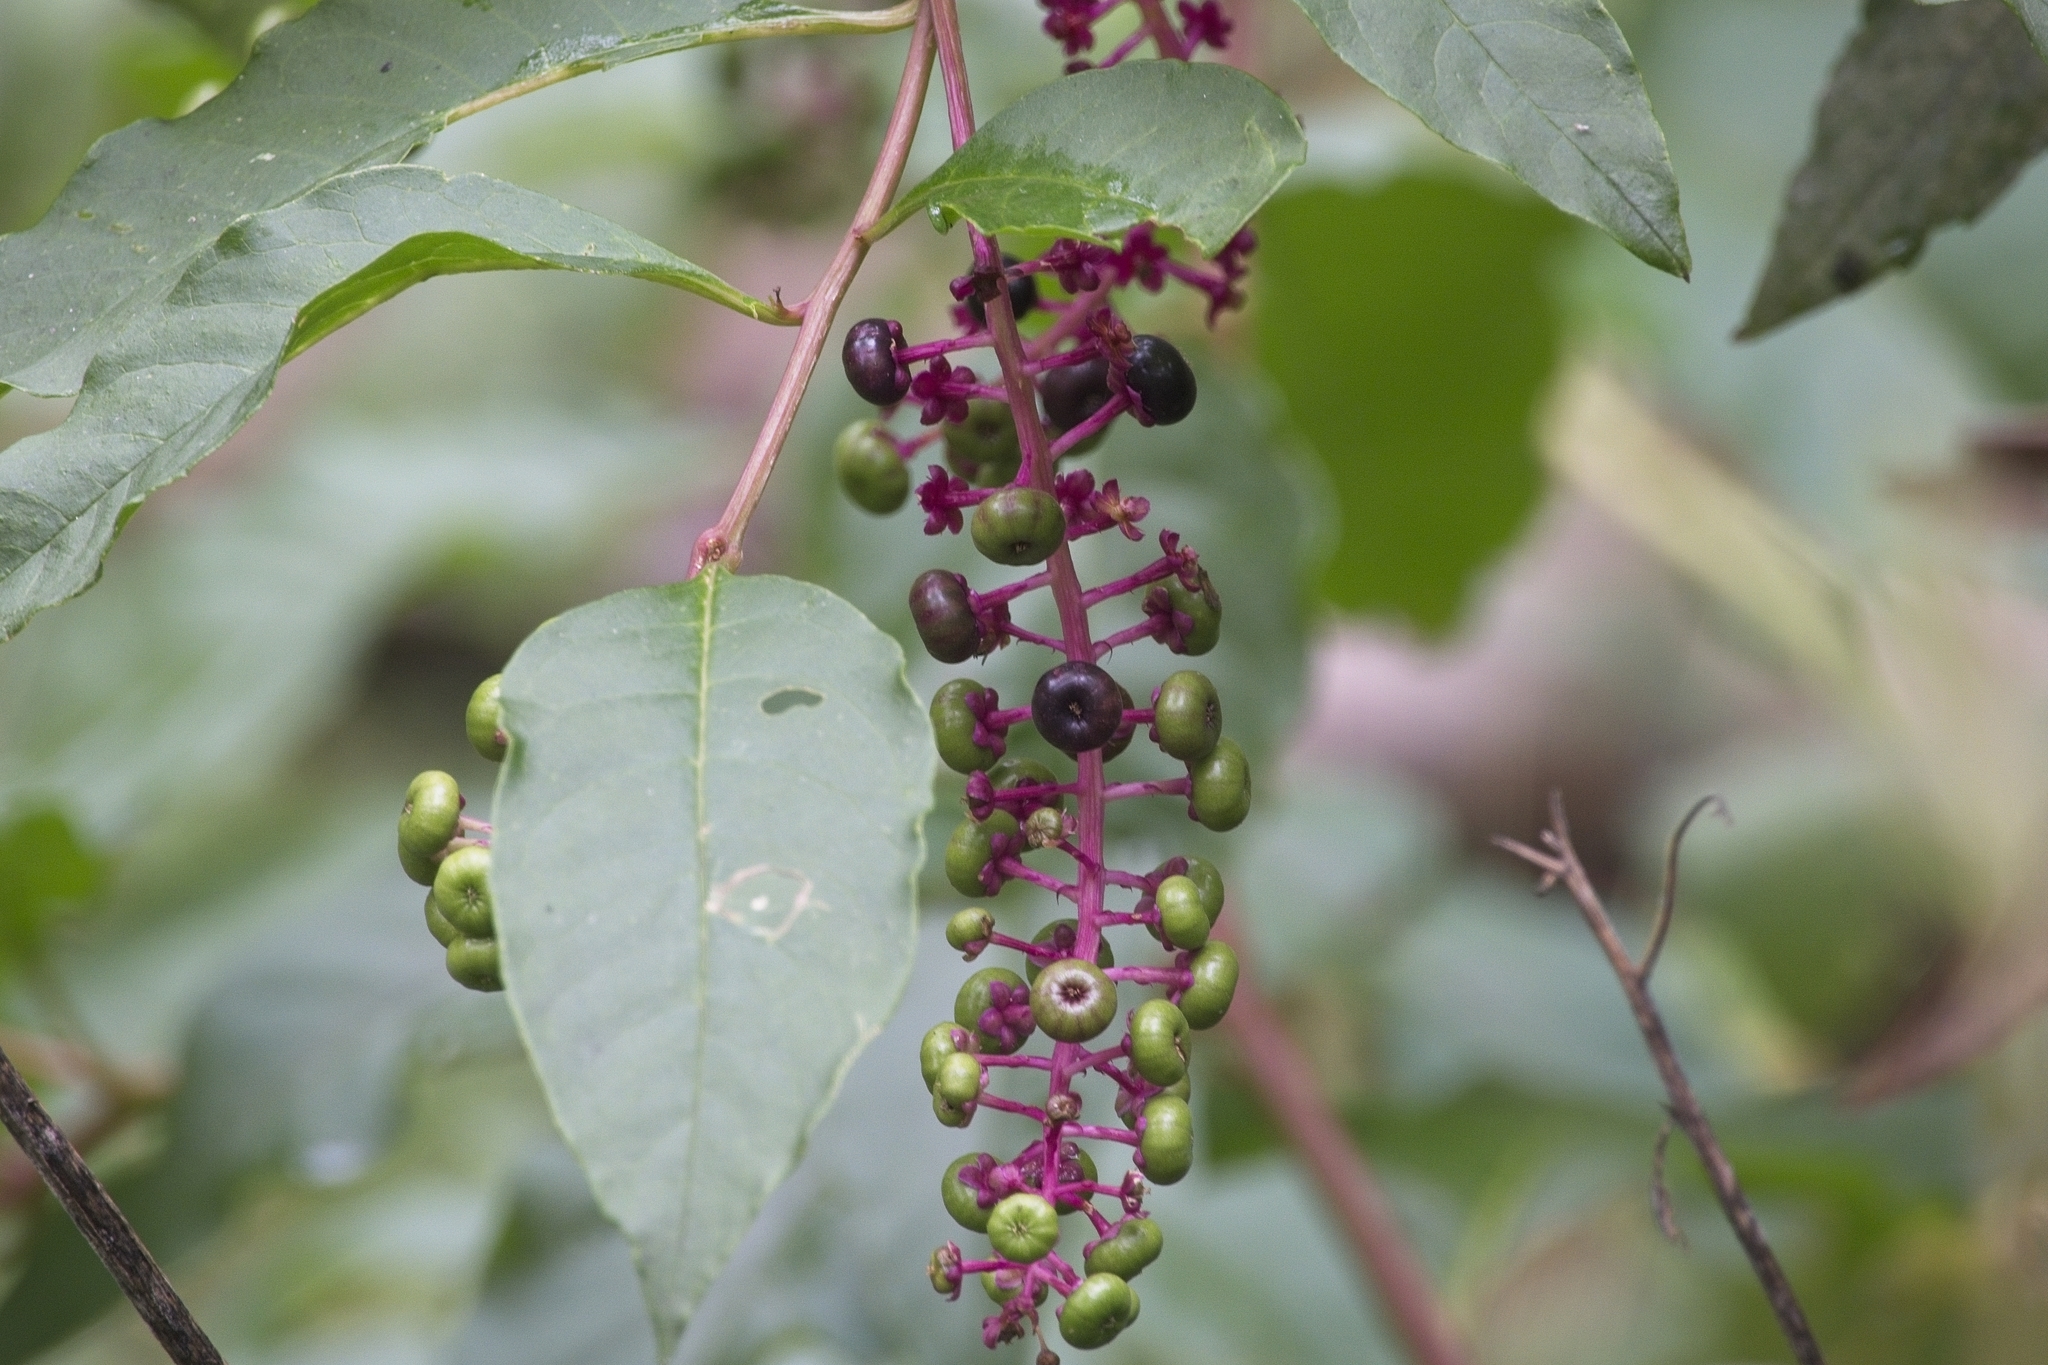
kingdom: Plantae
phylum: Tracheophyta
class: Magnoliopsida
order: Caryophyllales
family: Phytolaccaceae
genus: Phytolacca
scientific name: Phytolacca americana
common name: American pokeweed
